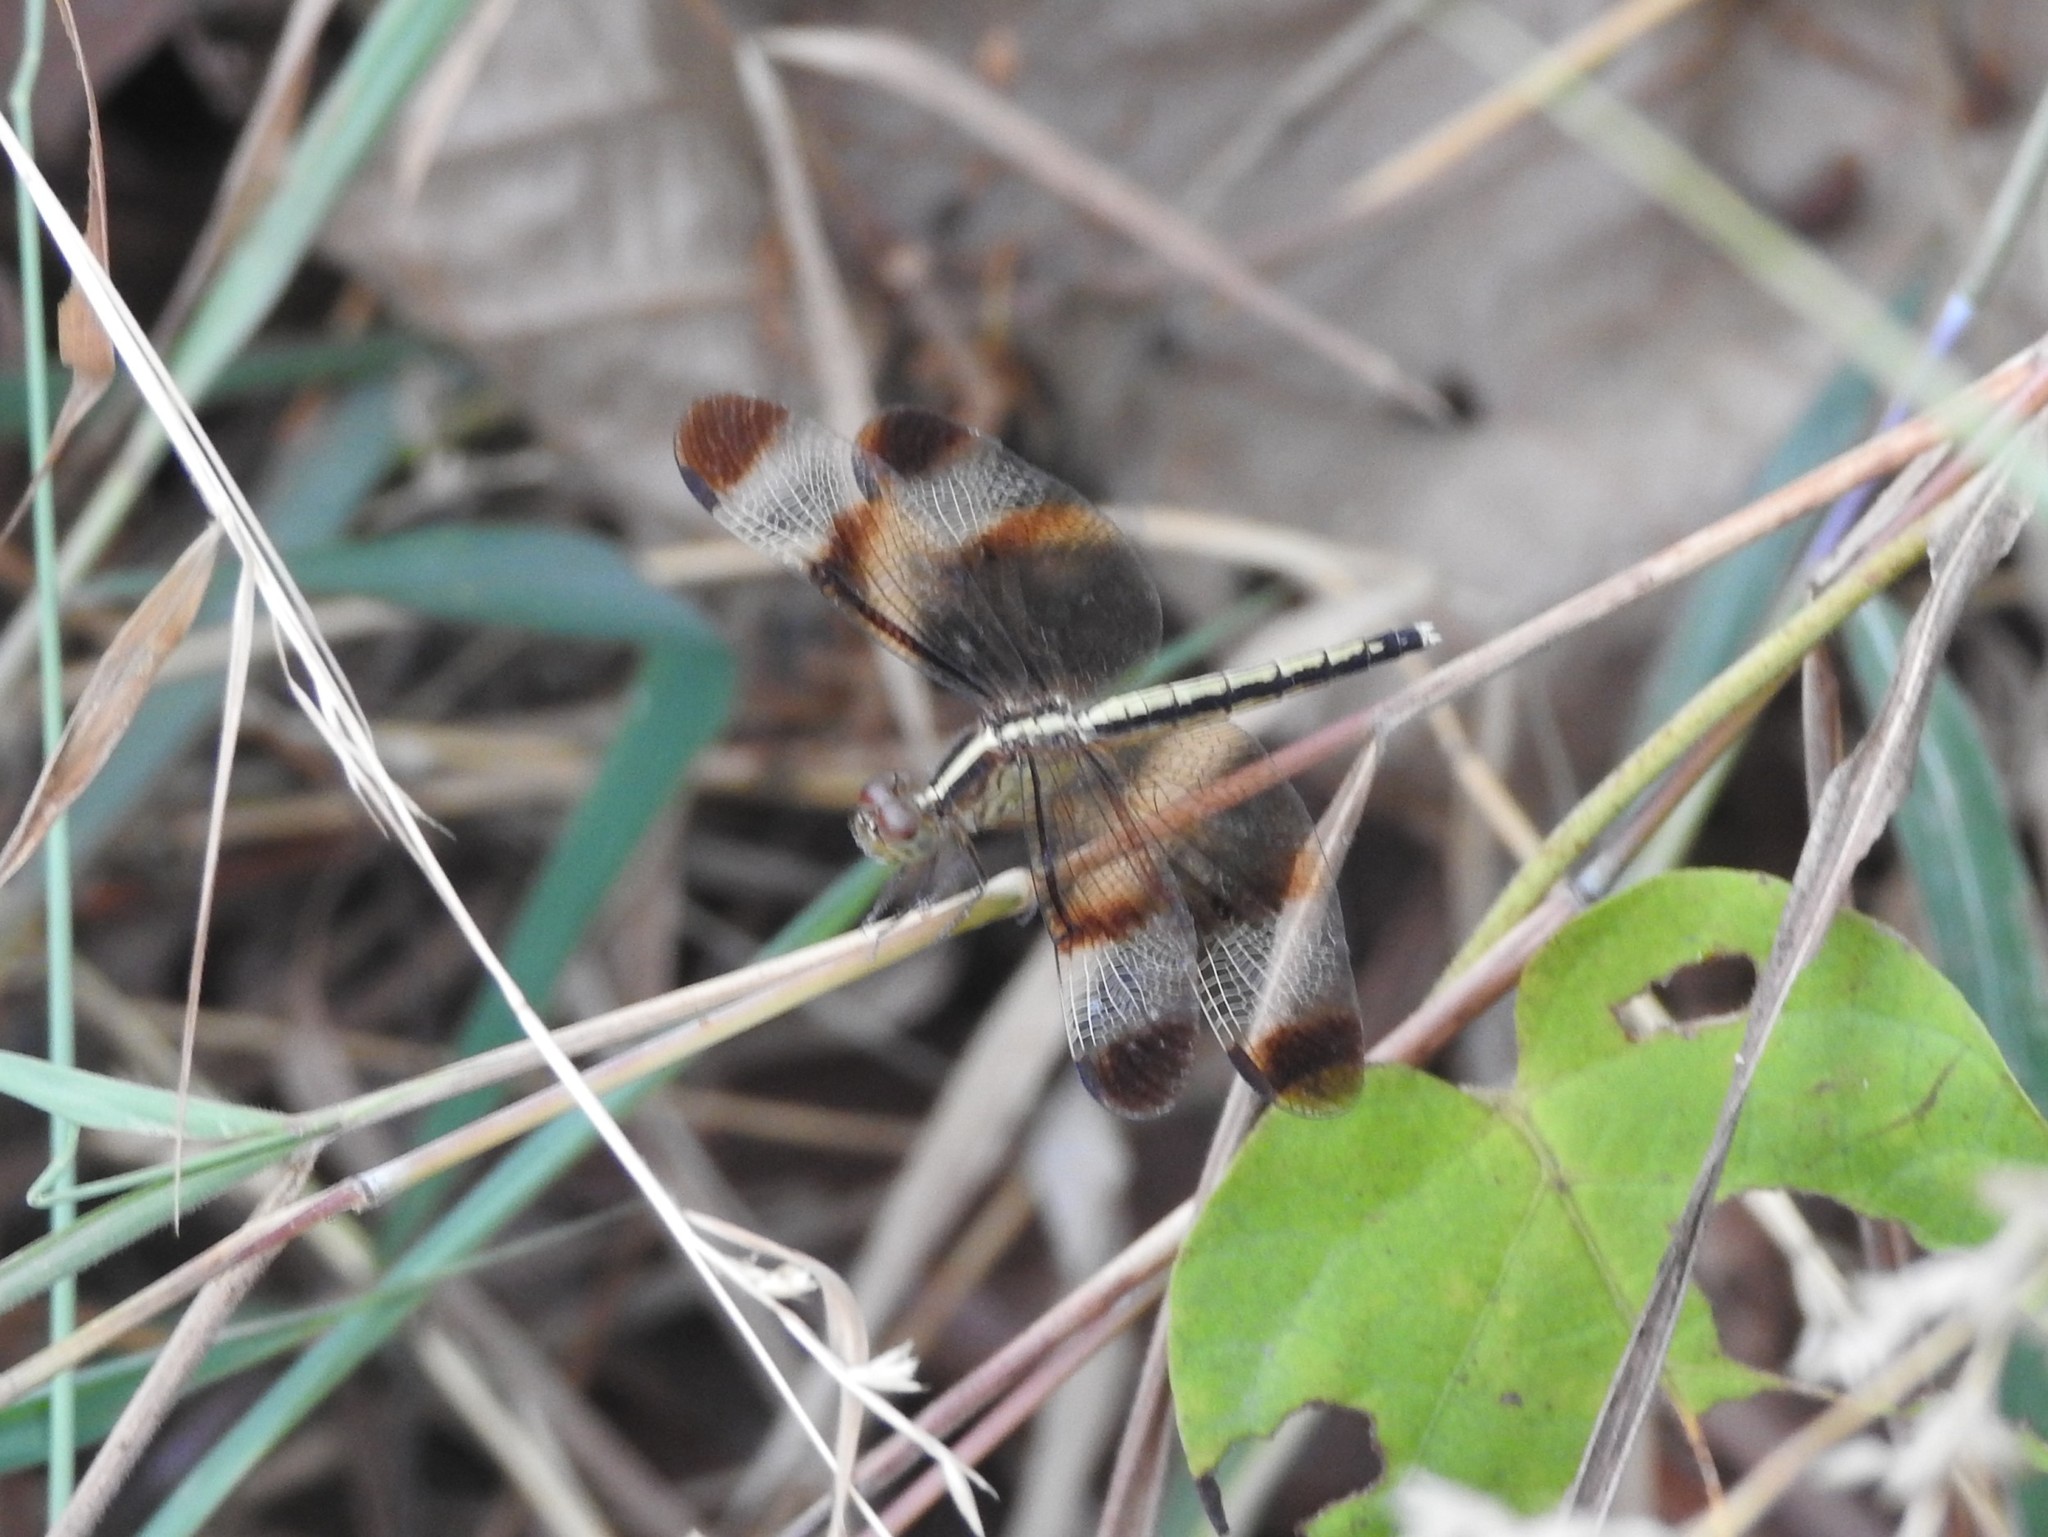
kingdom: Animalia
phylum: Arthropoda
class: Insecta
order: Odonata
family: Libellulidae
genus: Neurothemis
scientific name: Neurothemis tullia
